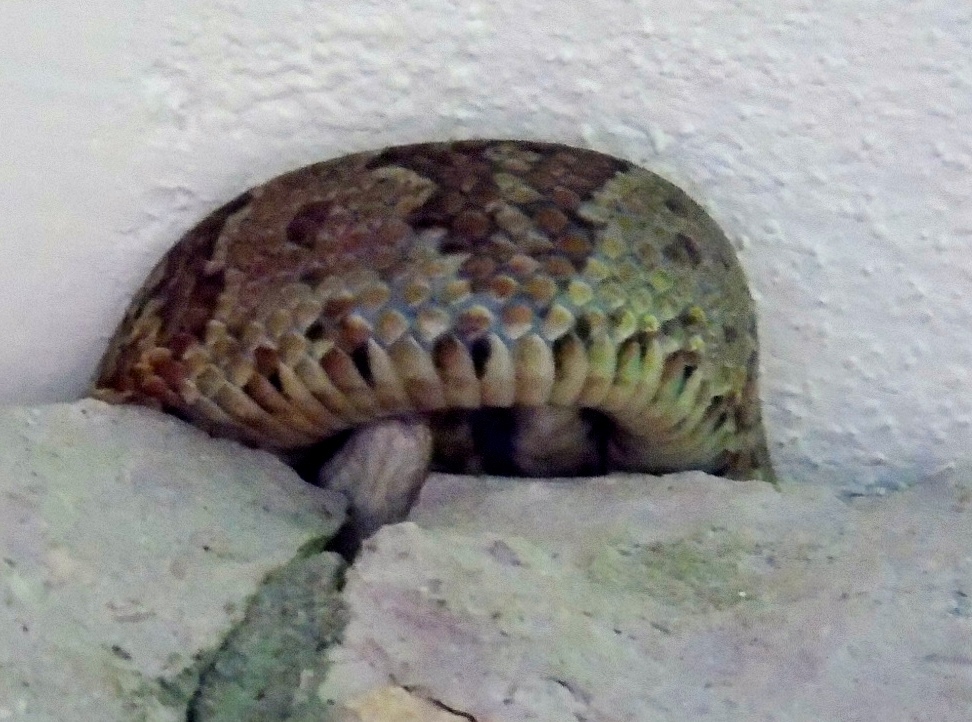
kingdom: Animalia
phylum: Chordata
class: Squamata
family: Colubridae
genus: Trimorphodon
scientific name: Trimorphodon paucimaculatus
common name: Sinaloan lyresnake
